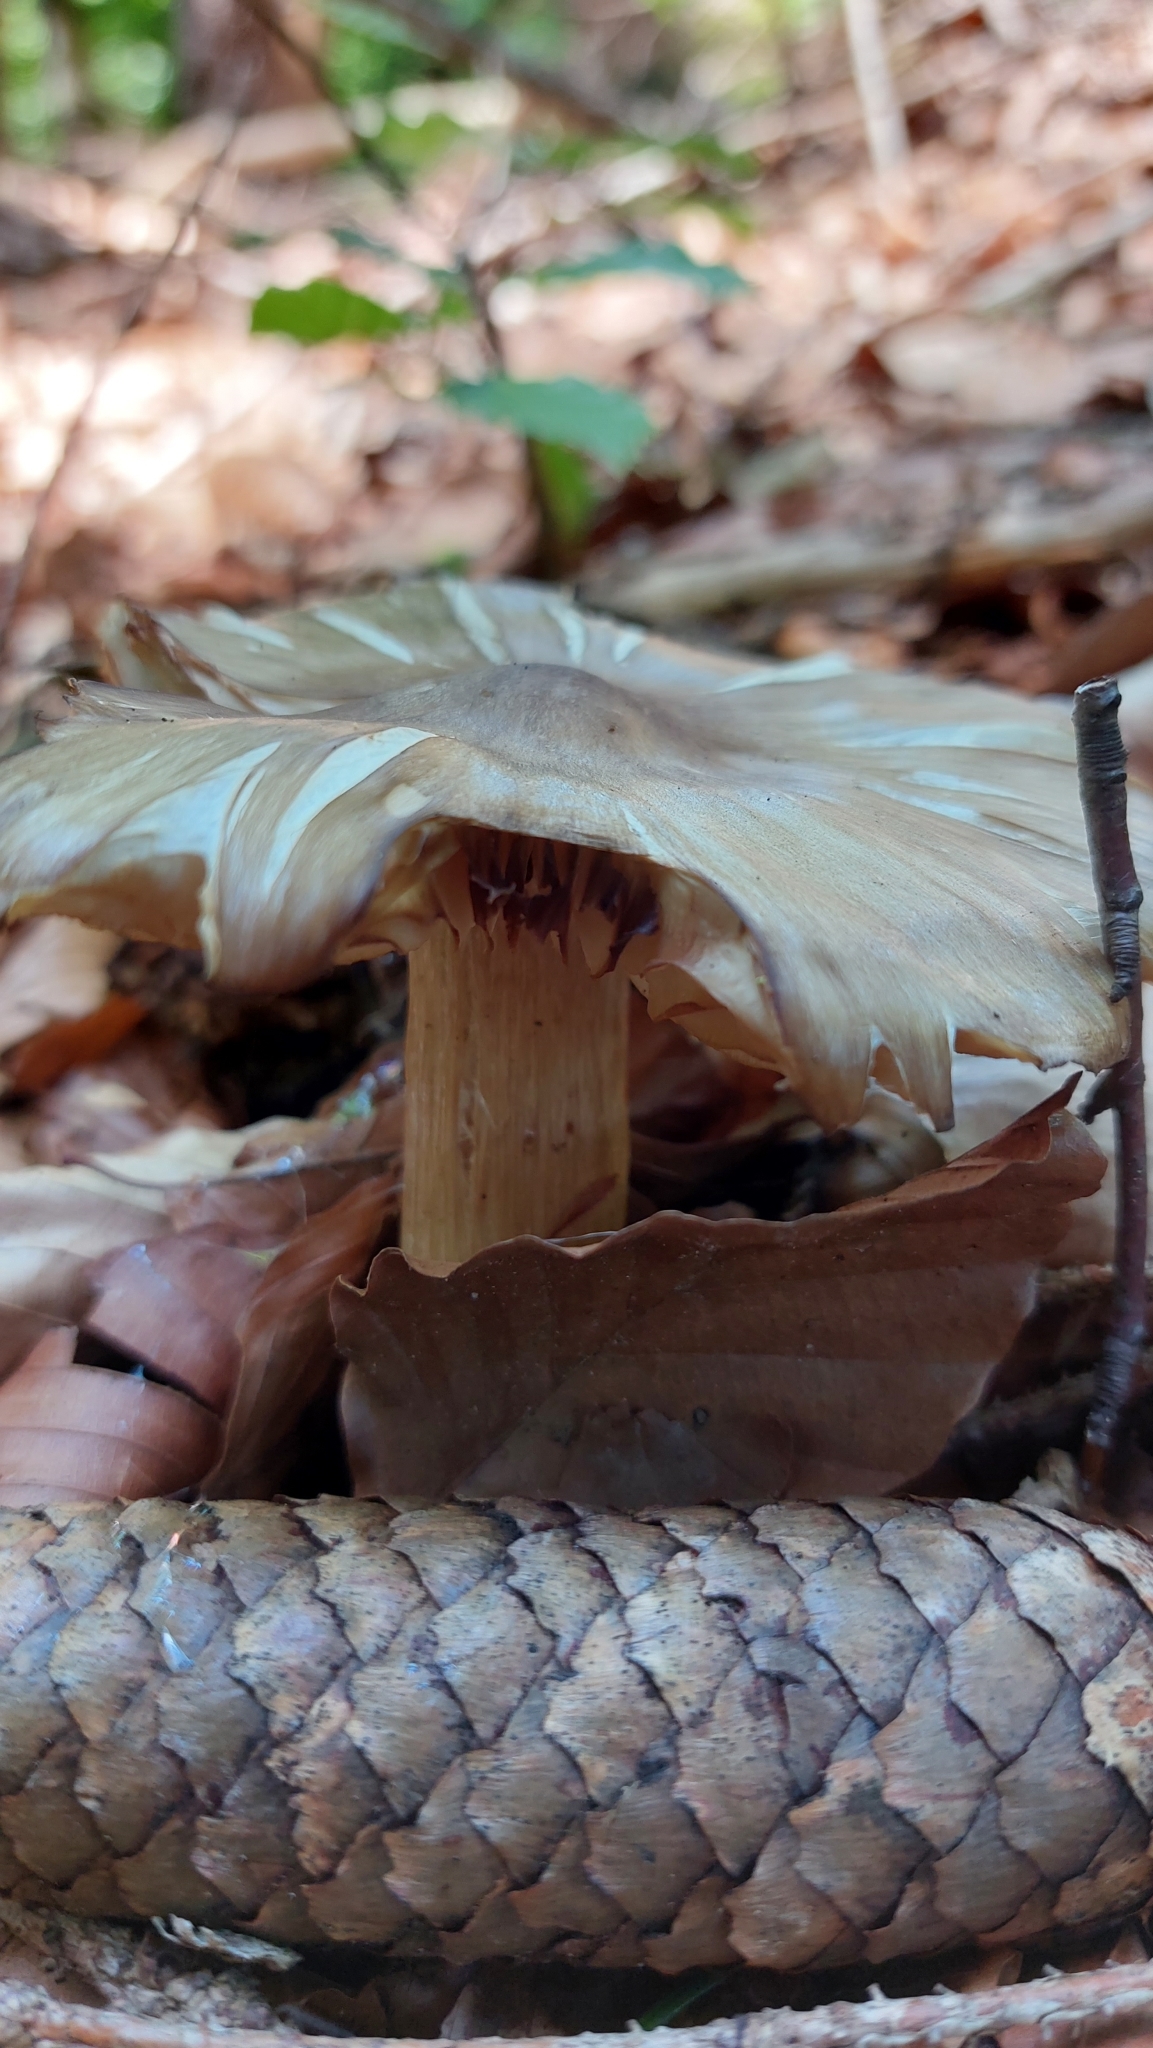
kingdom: Fungi
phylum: Basidiomycota
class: Agaricomycetes
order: Agaricales
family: Tricholomataceae
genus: Megacollybia
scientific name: Megacollybia platyphylla
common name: Whitelaced shank
